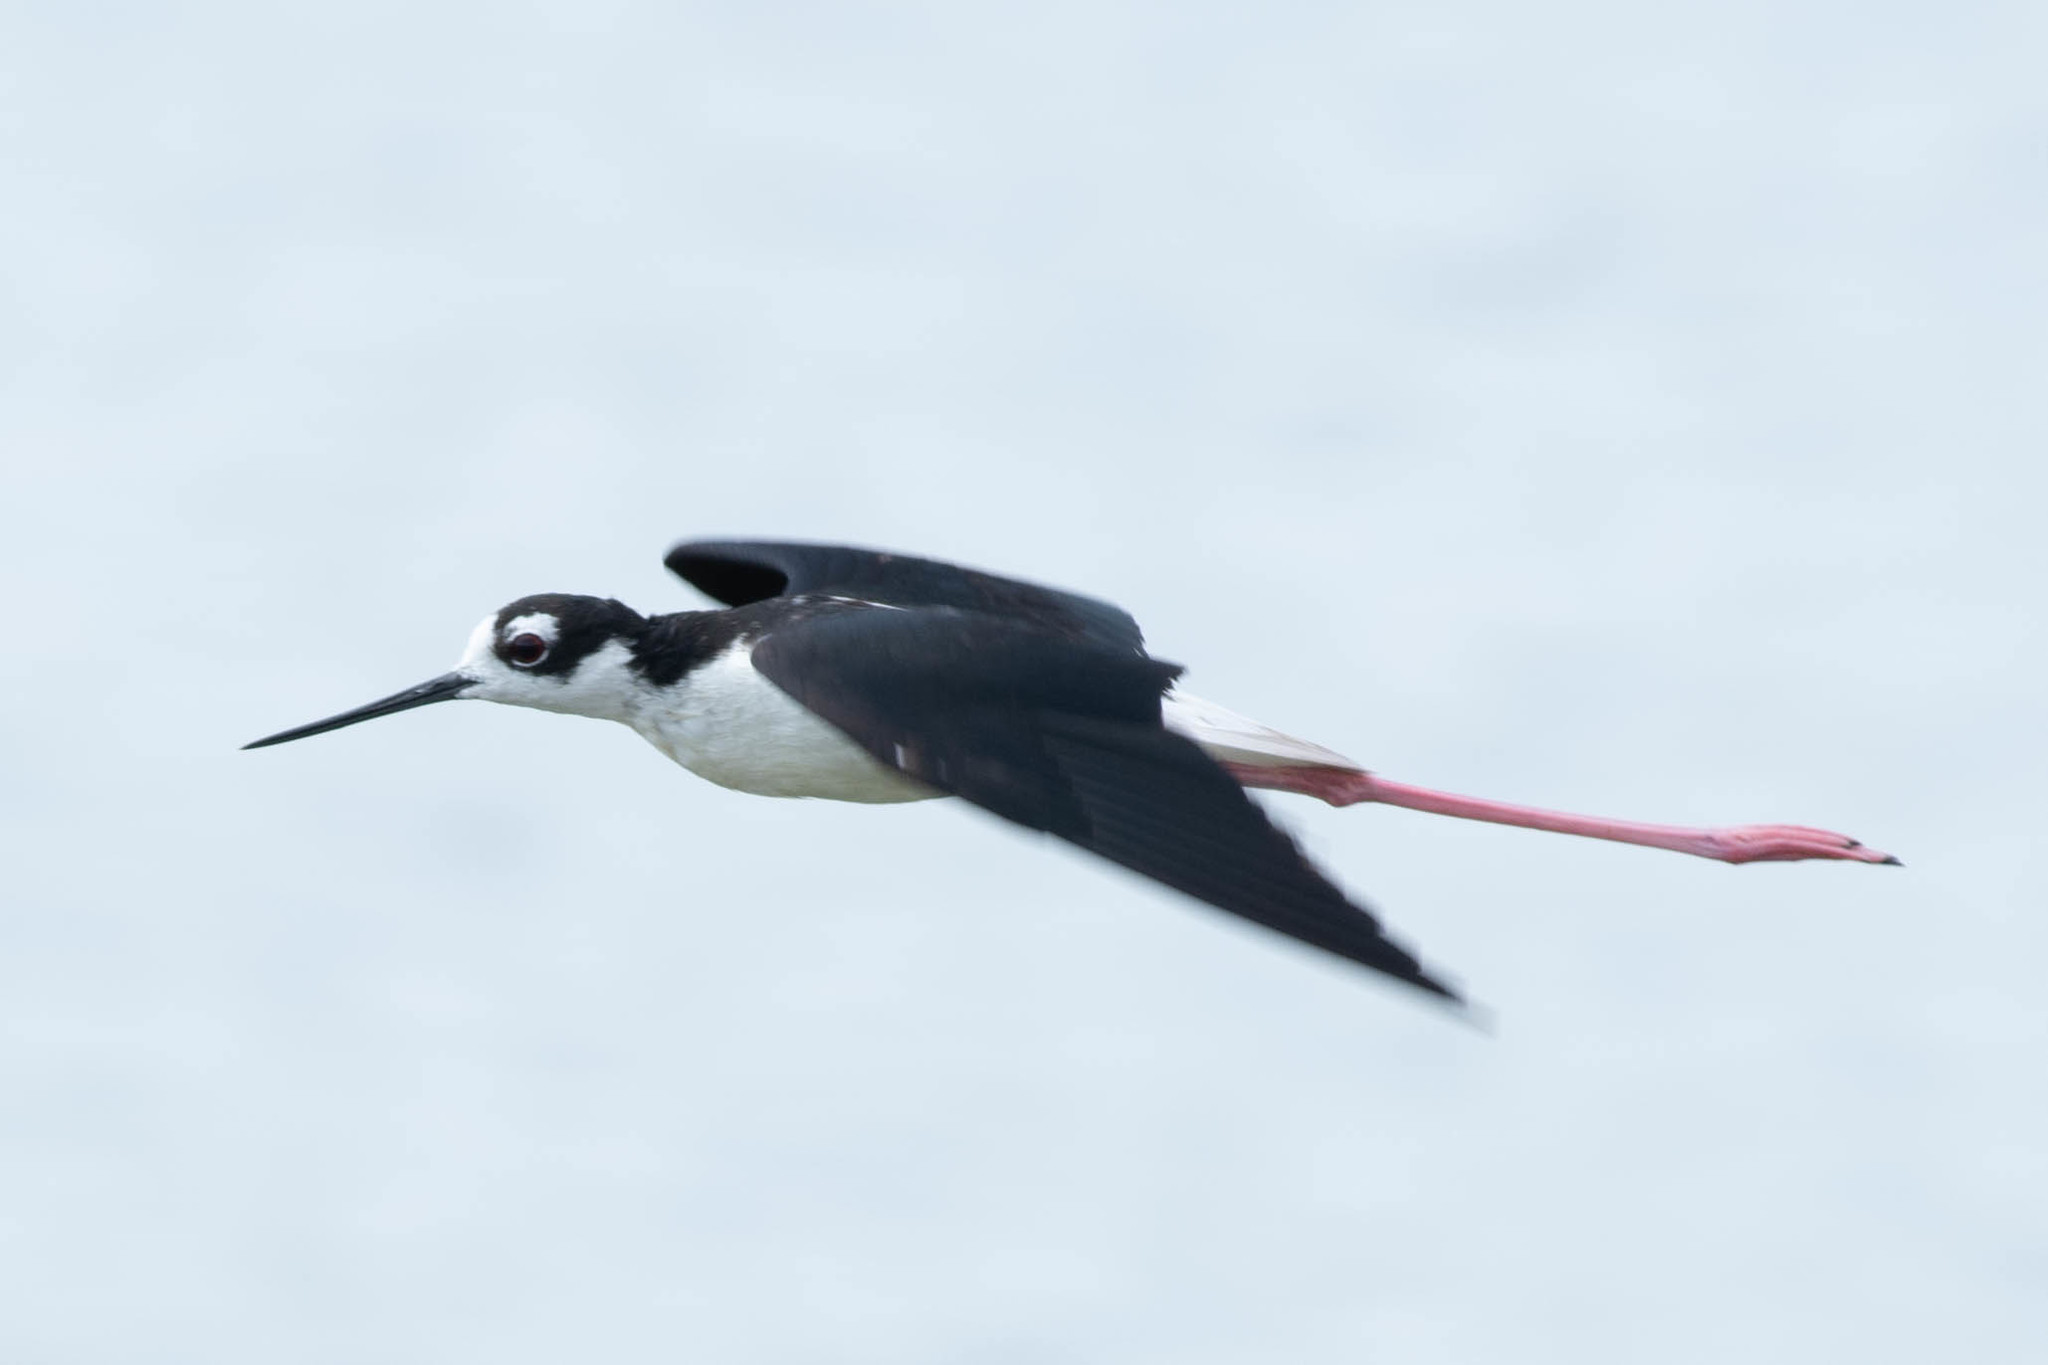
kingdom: Animalia
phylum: Chordata
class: Aves
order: Charadriiformes
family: Recurvirostridae
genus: Himantopus
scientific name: Himantopus mexicanus
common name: Black-necked stilt
